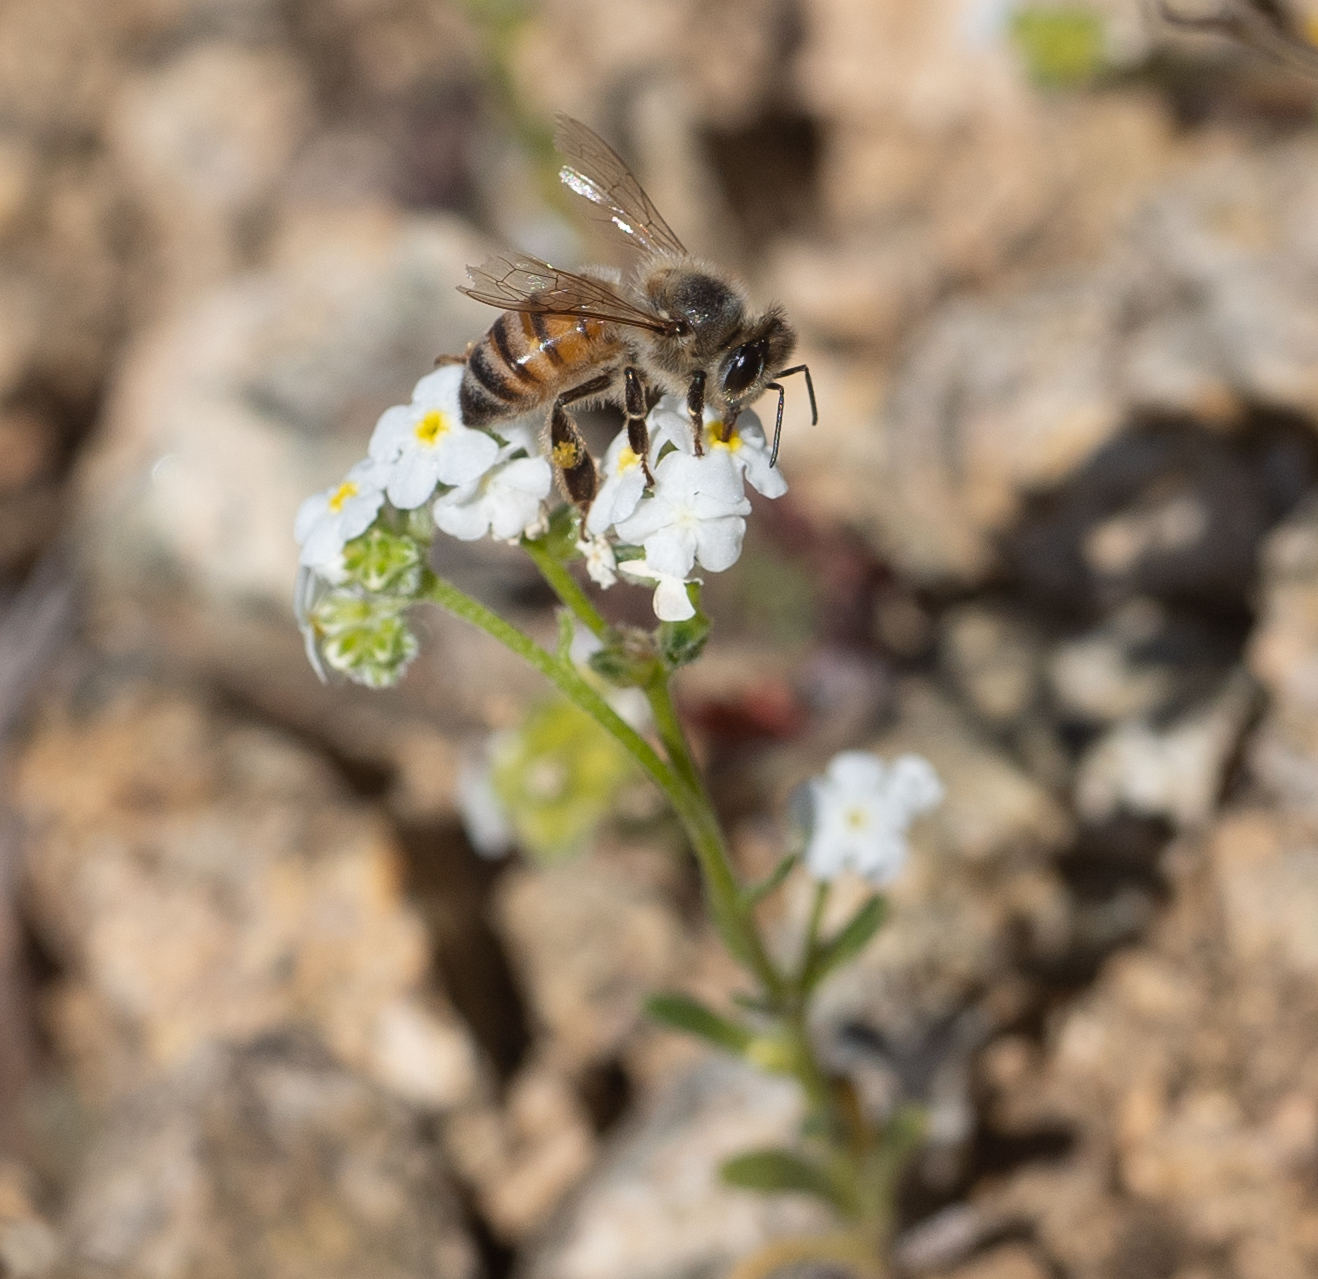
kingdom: Animalia
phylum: Arthropoda
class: Insecta
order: Hymenoptera
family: Apidae
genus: Apis
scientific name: Apis mellifera
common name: Honey bee
